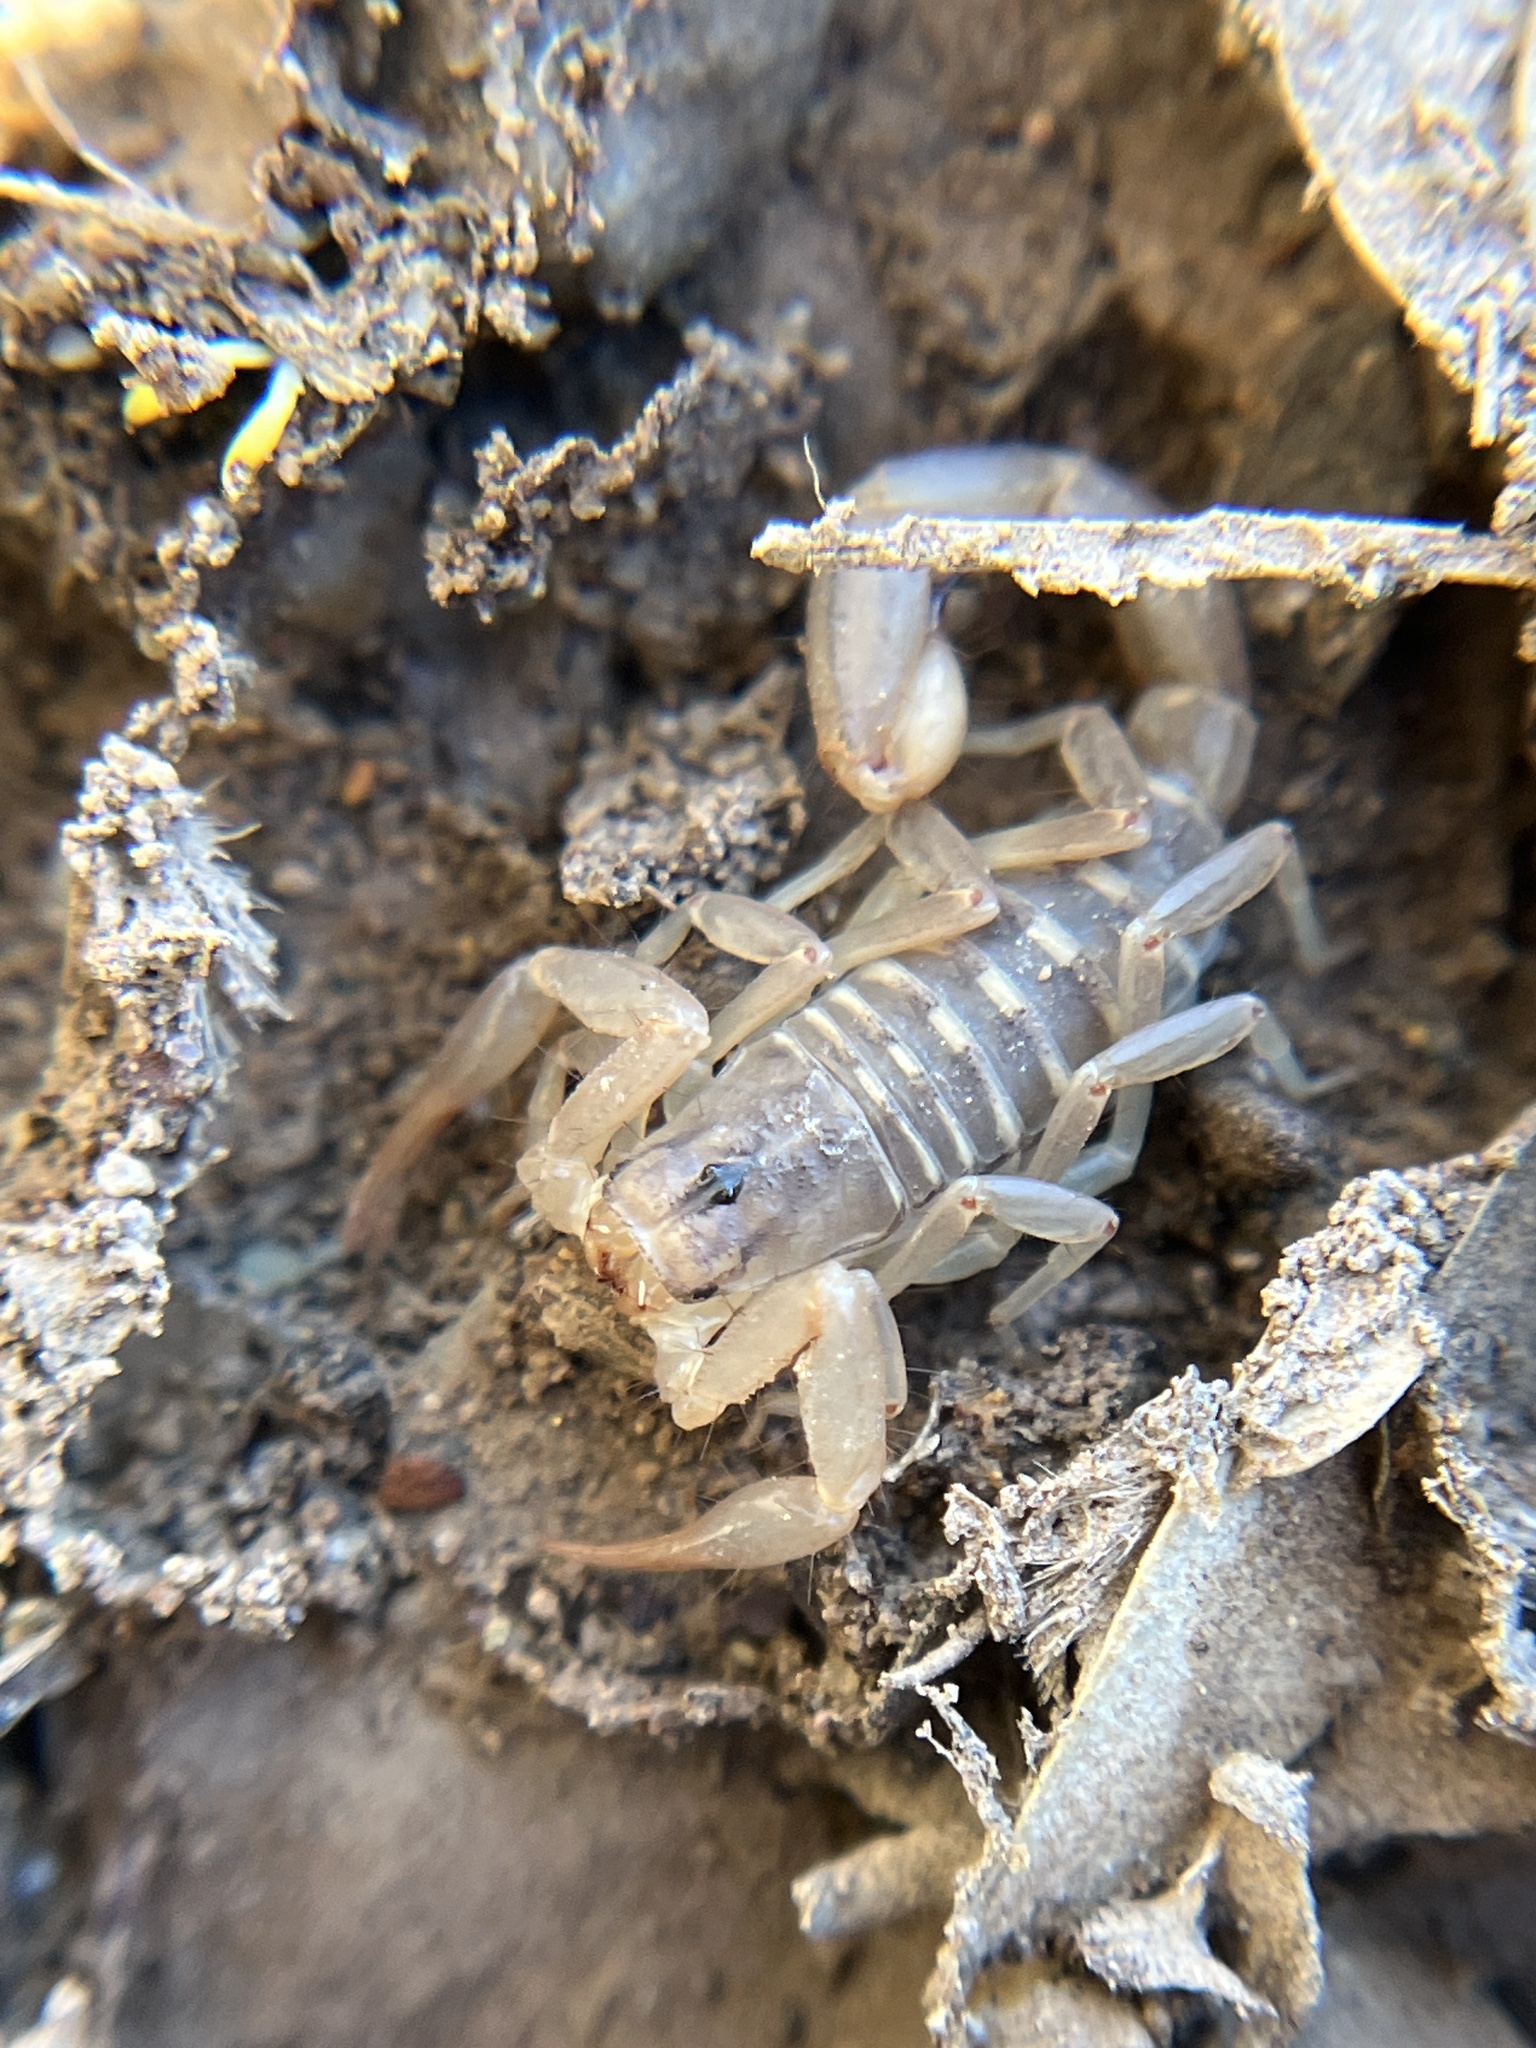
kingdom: Animalia
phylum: Arthropoda
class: Arachnida
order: Scorpiones
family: Vaejovidae
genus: Paravaejovis
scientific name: Paravaejovis spinigerus
